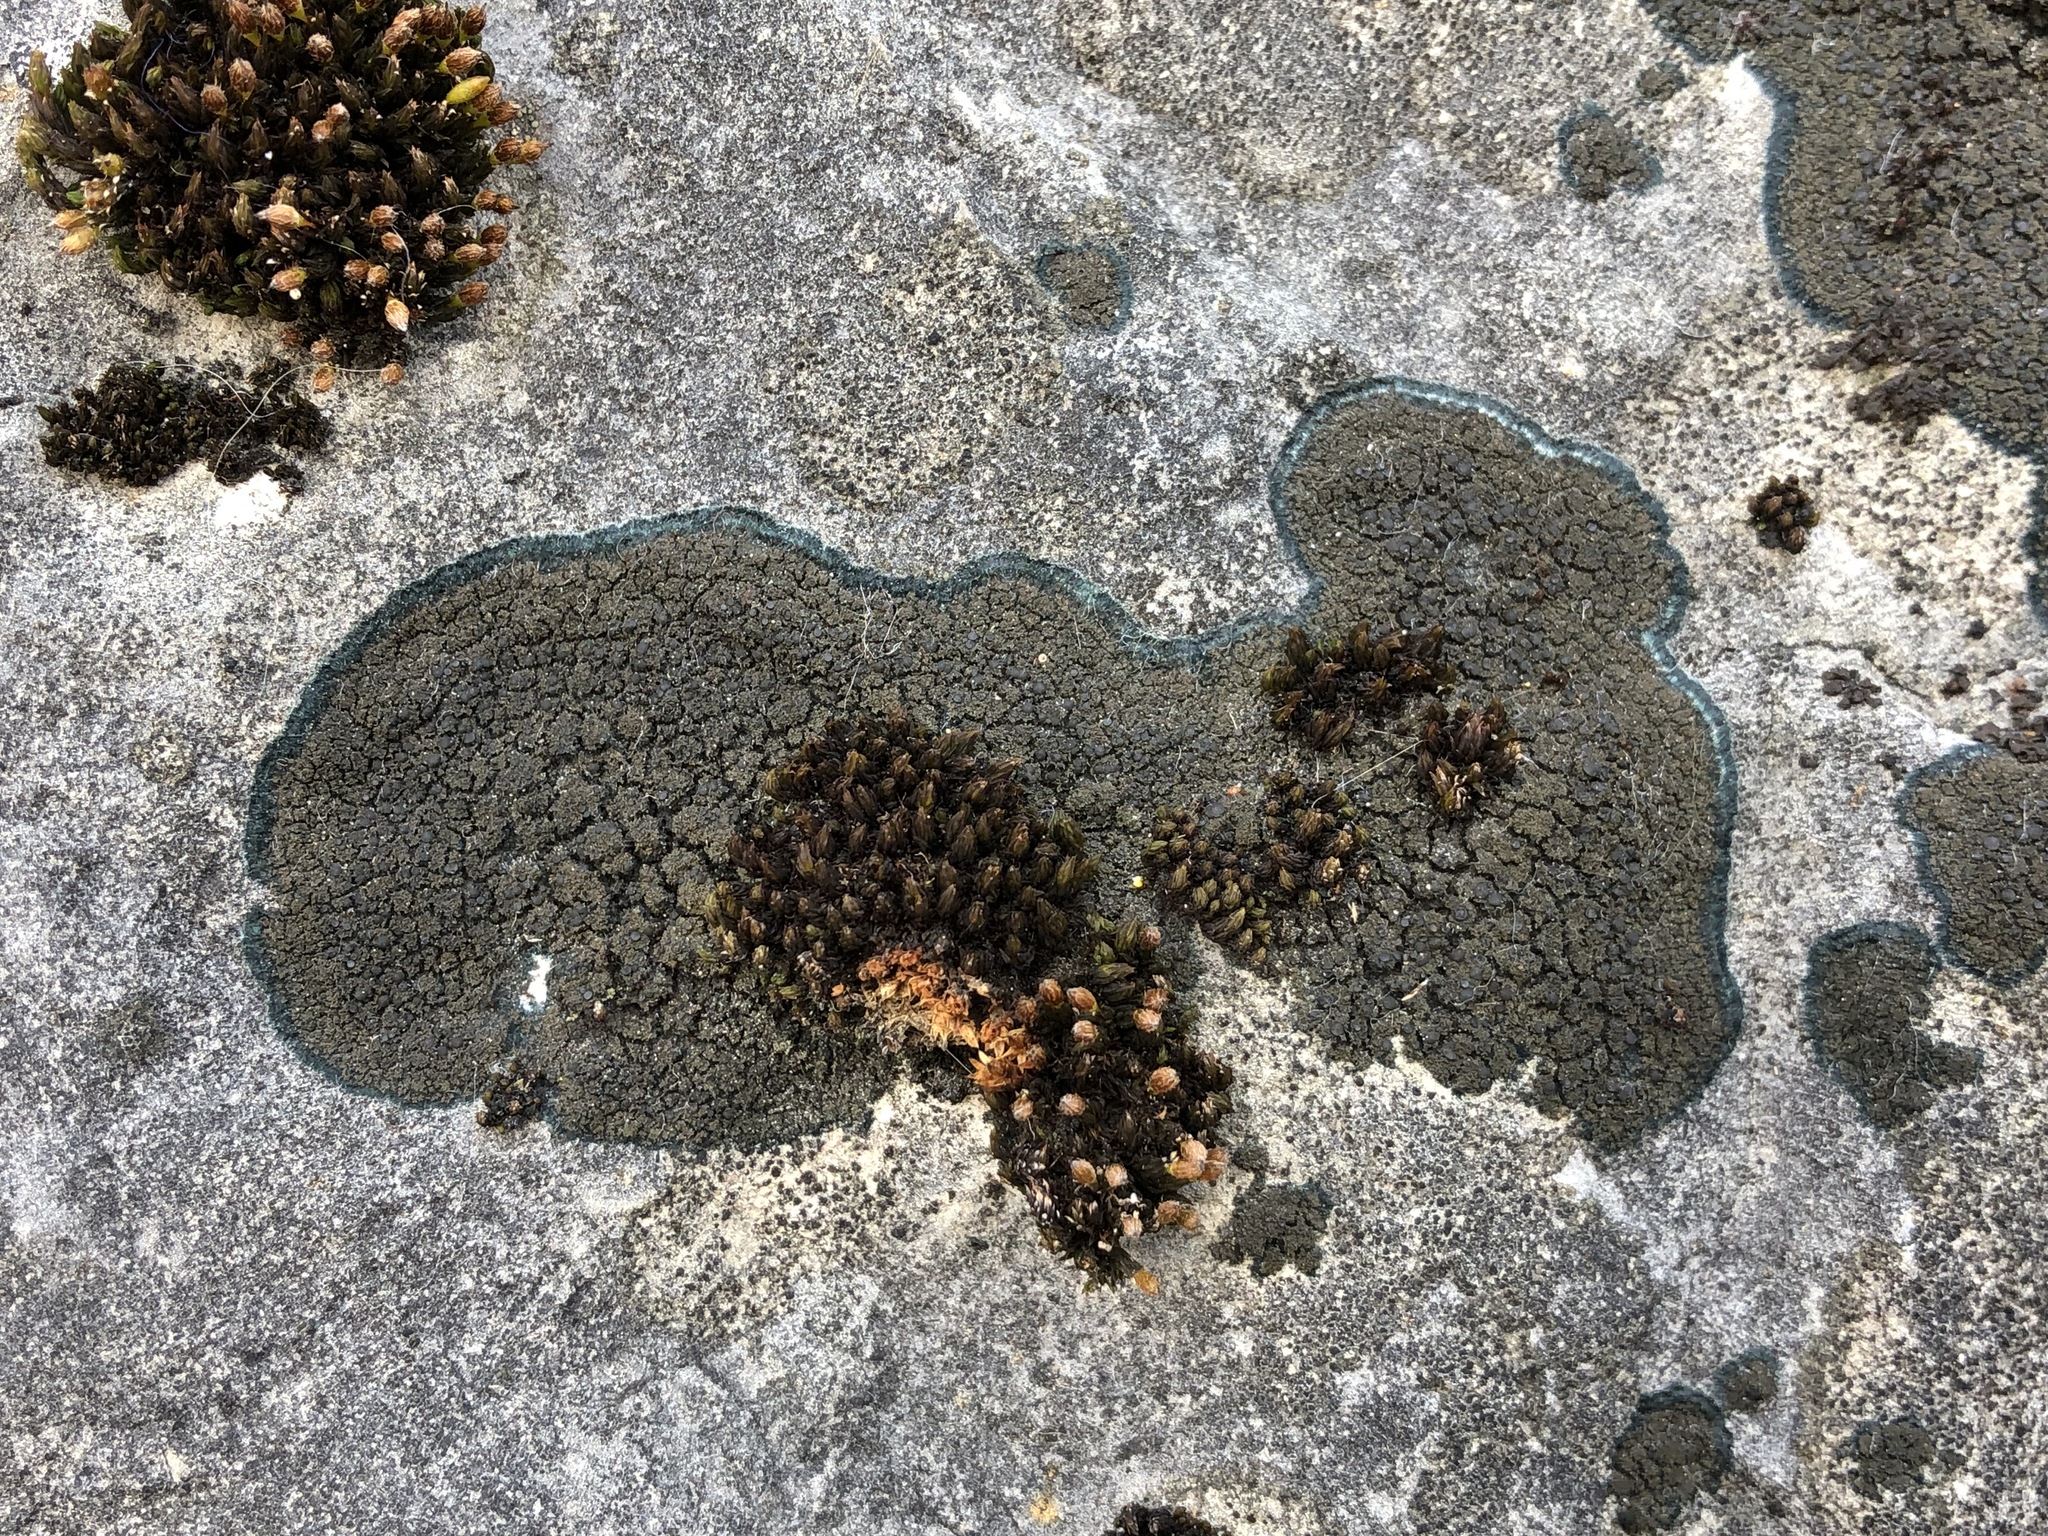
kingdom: Fungi
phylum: Ascomycota
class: Lecanoromycetes
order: Peltigerales
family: Placynthiaceae
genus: Placynthium
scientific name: Placynthium nigrum
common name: Blackthread lichen
